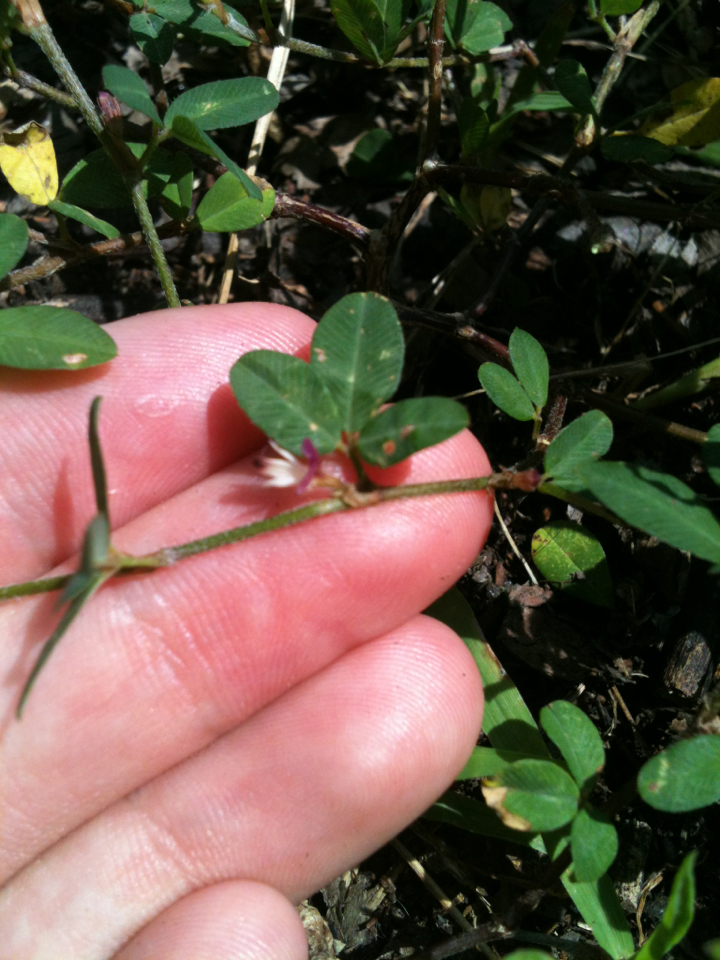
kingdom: Plantae
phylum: Tracheophyta
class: Magnoliopsida
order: Fabales
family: Fabaceae
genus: Kummerowia
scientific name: Kummerowia striata
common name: Japanese clover
